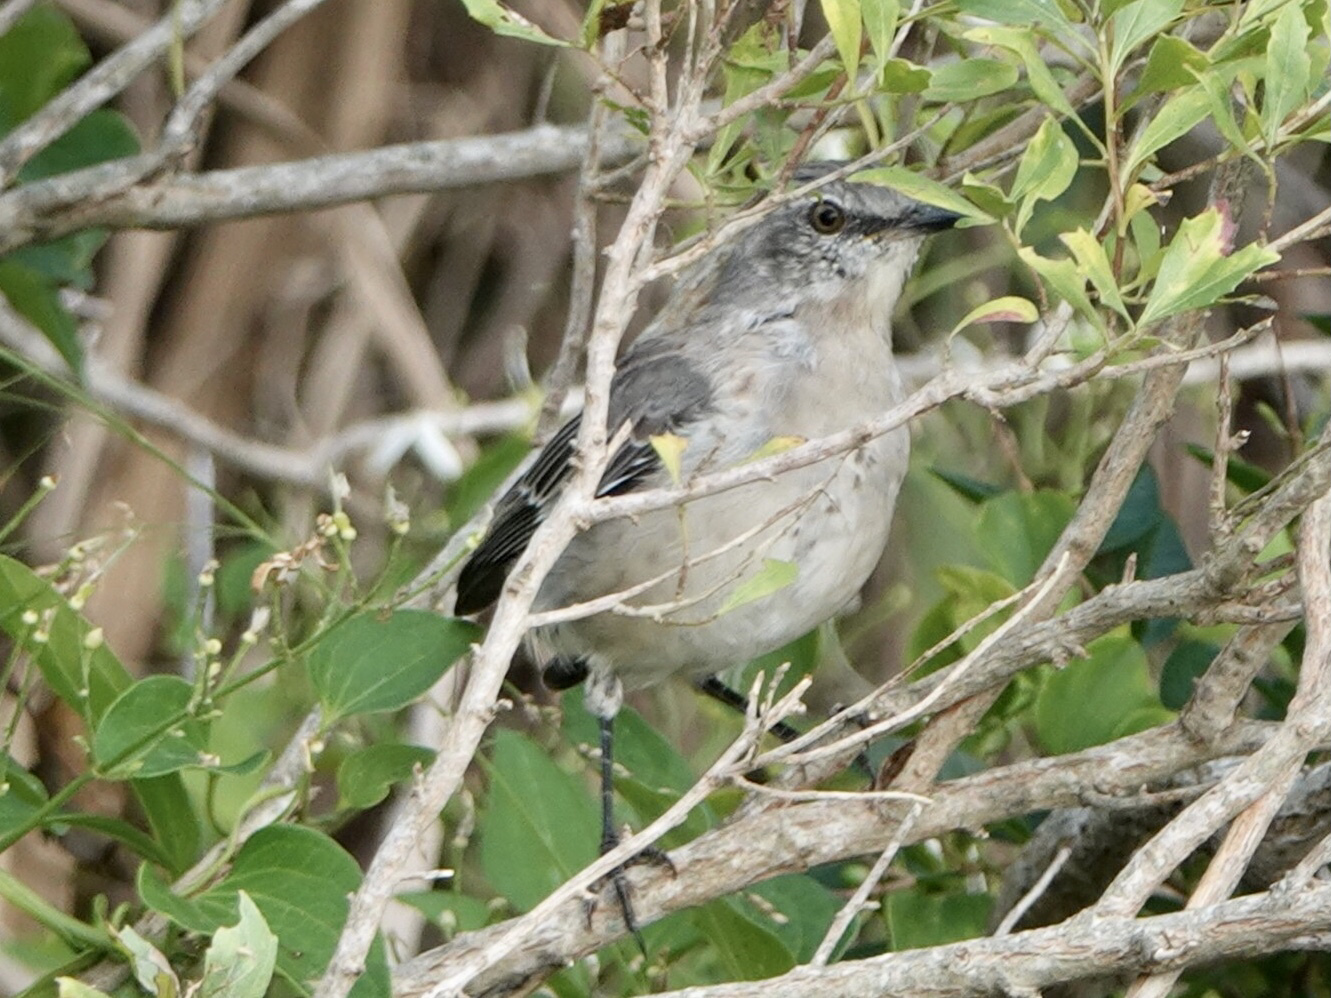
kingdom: Animalia
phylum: Chordata
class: Aves
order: Passeriformes
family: Mimidae
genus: Mimus
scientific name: Mimus polyglottos
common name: Northern mockingbird
